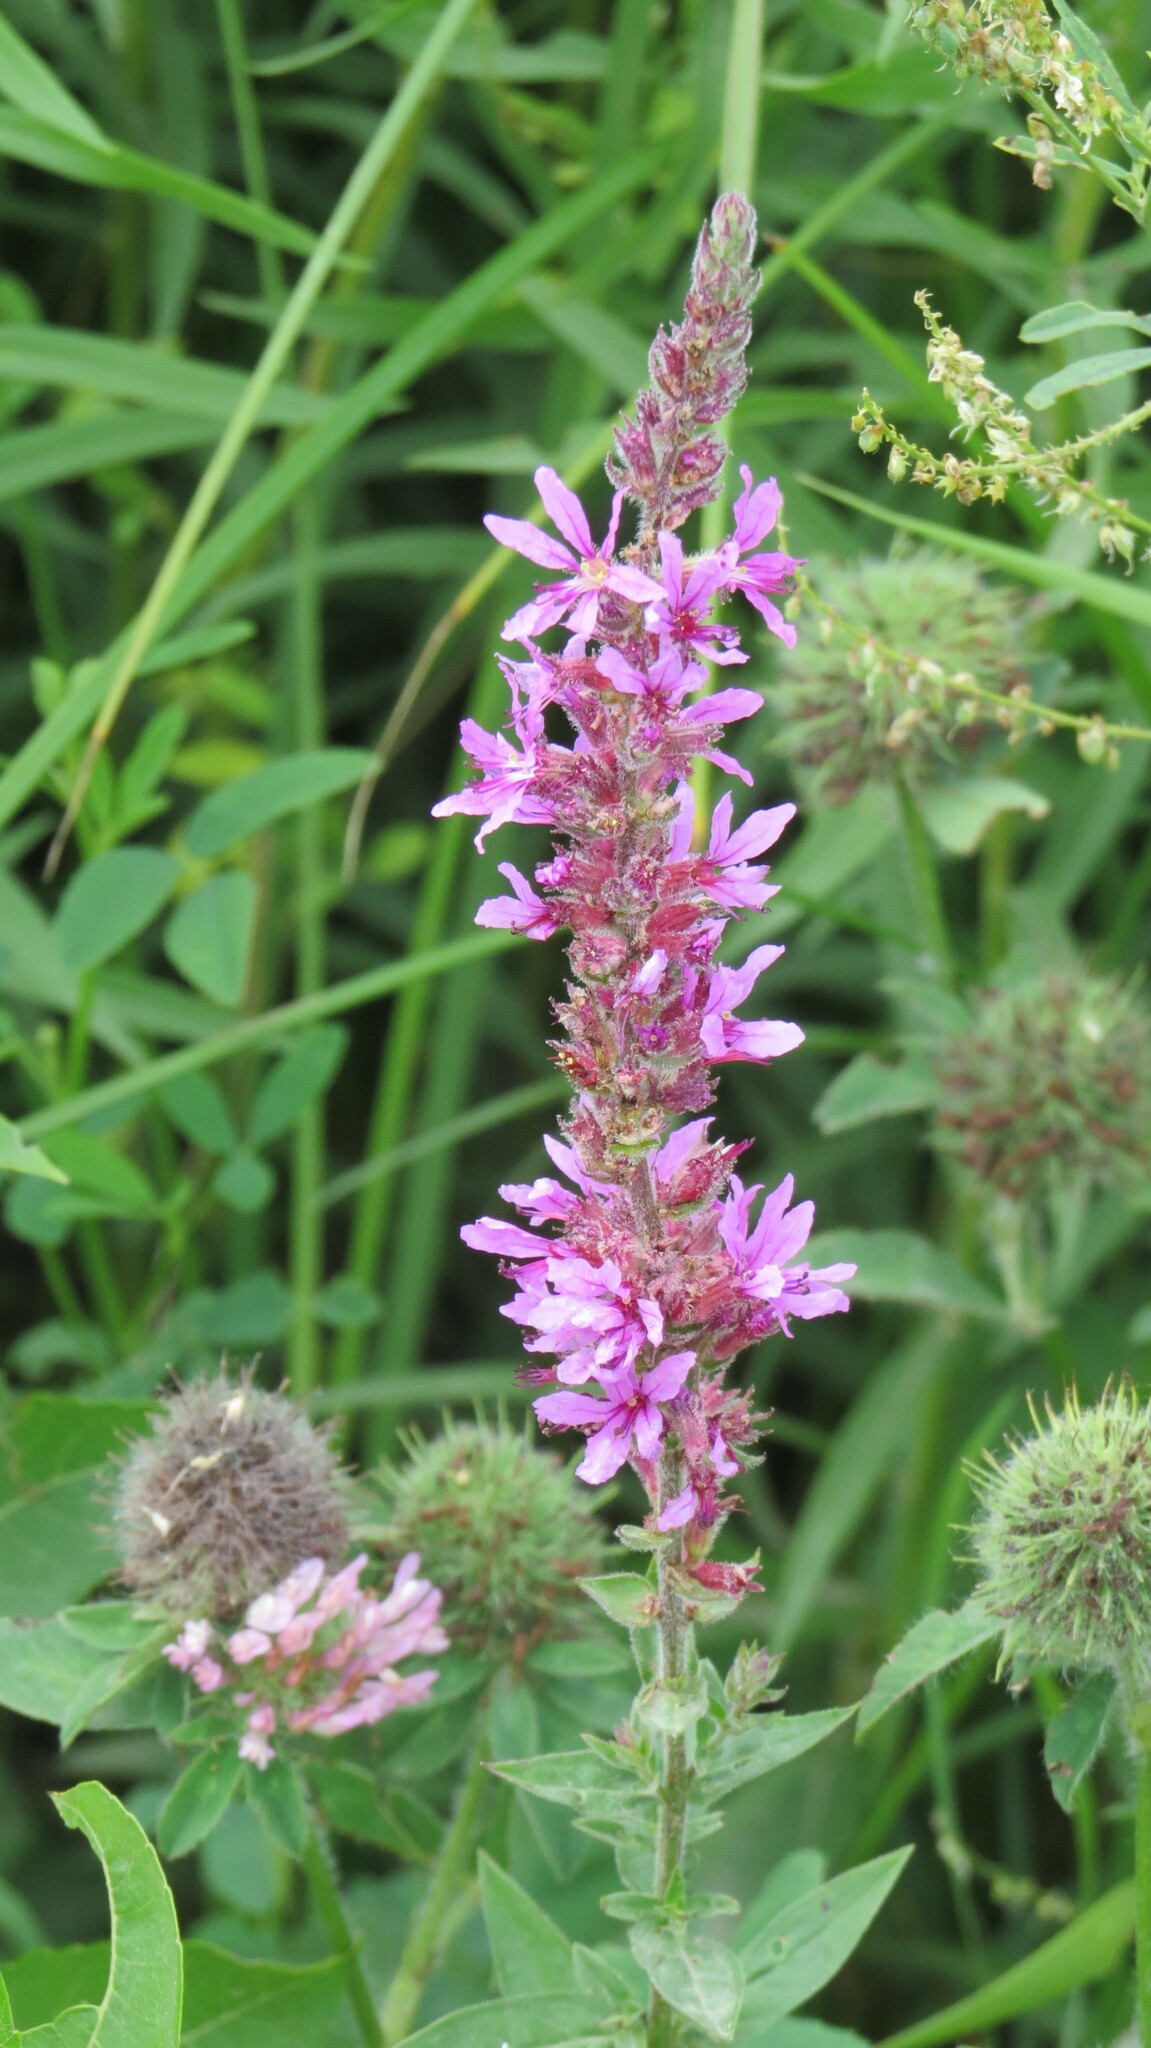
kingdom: Plantae
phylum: Tracheophyta
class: Magnoliopsida
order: Myrtales
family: Lythraceae
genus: Lythrum
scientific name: Lythrum salicaria
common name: Purple loosestrife
